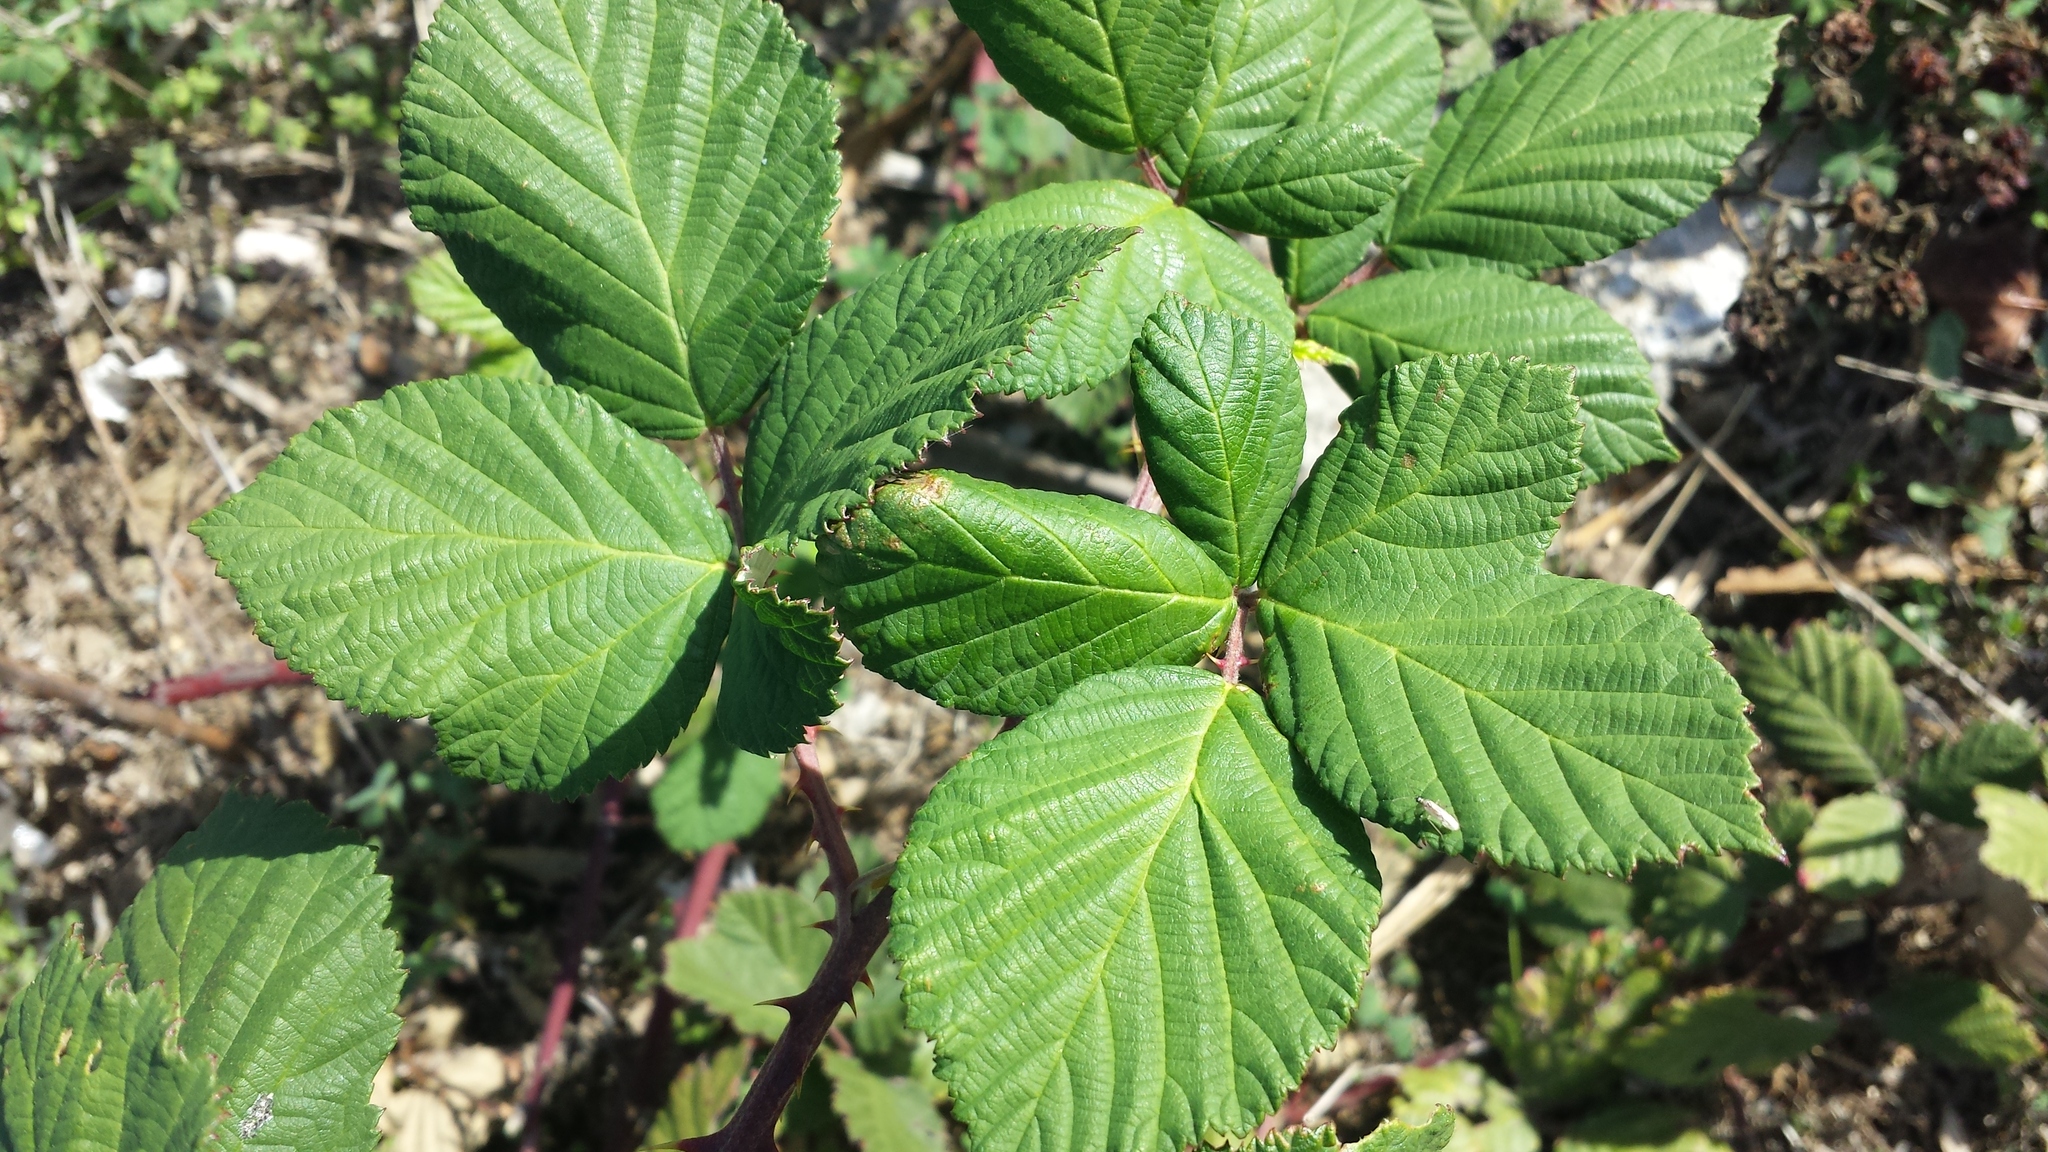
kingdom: Plantae
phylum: Tracheophyta
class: Magnoliopsida
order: Rosales
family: Rosaceae
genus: Rubus
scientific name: Rubus armeniacus
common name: Himalayan blackberry
